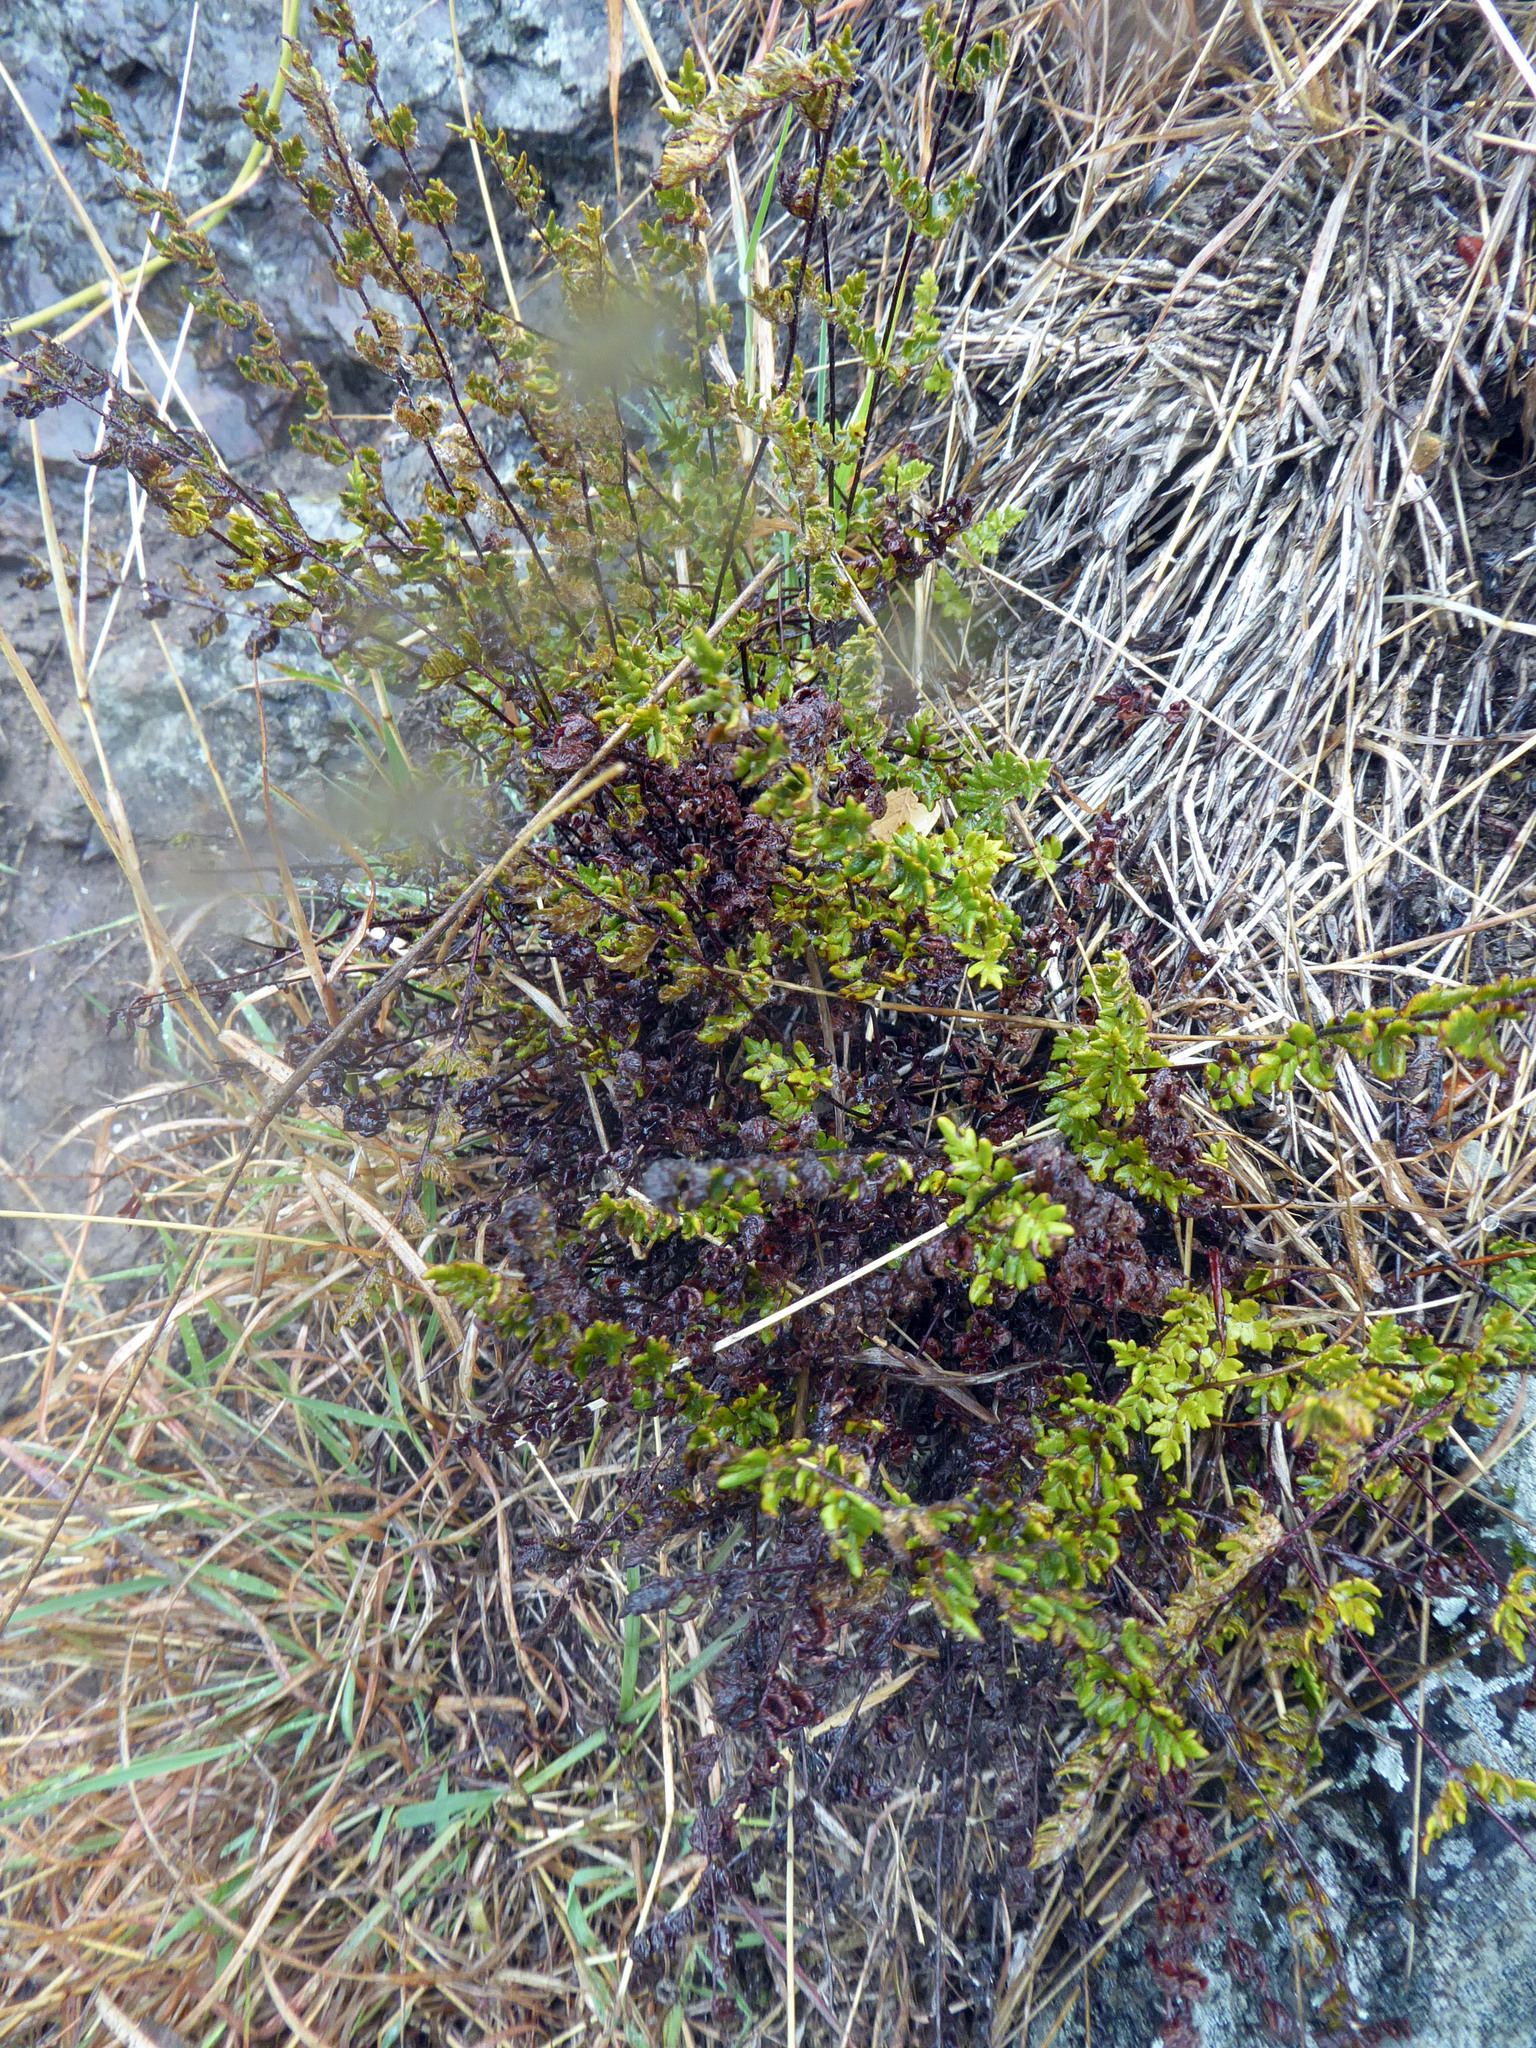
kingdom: Plantae
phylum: Tracheophyta
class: Polypodiopsida
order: Polypodiales
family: Pteridaceae
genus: Cheilanthes
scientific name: Cheilanthes sieberi
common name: Mulga fern
